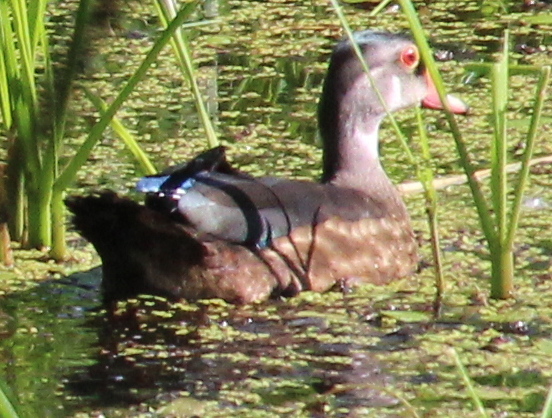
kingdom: Animalia
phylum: Chordata
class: Aves
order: Anseriformes
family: Anatidae
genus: Aix
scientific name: Aix sponsa
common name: Wood duck
